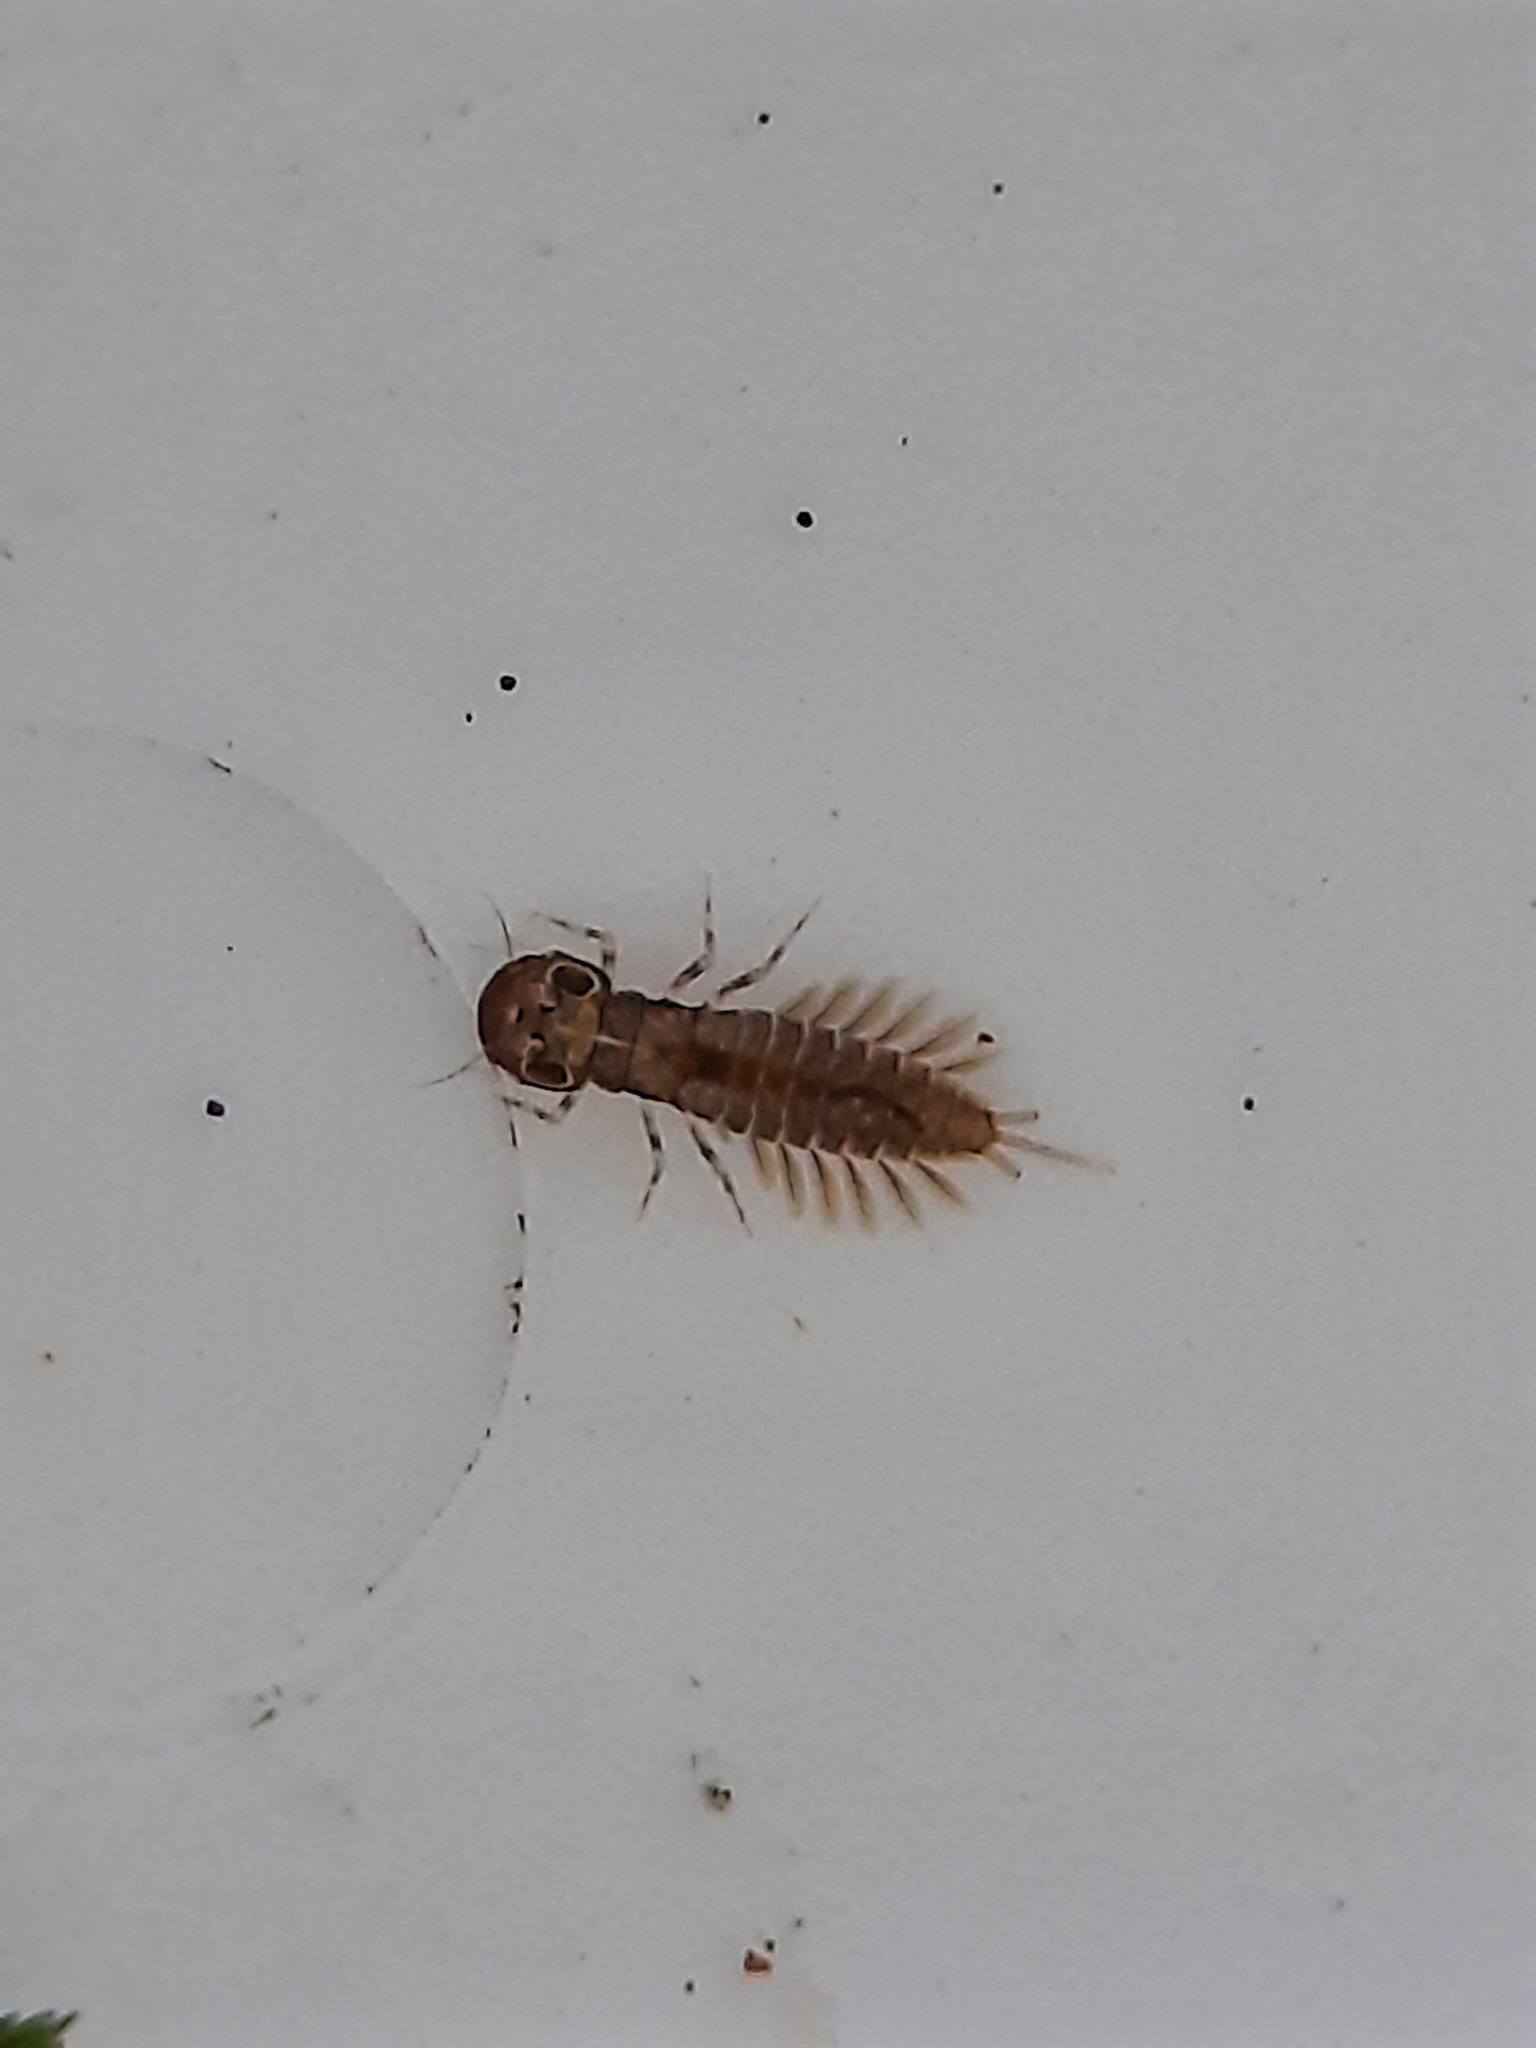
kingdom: Animalia
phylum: Arthropoda
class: Insecta
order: Ephemeroptera
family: Ameletopsidae
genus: Ameletopsis
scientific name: Ameletopsis perscitus
